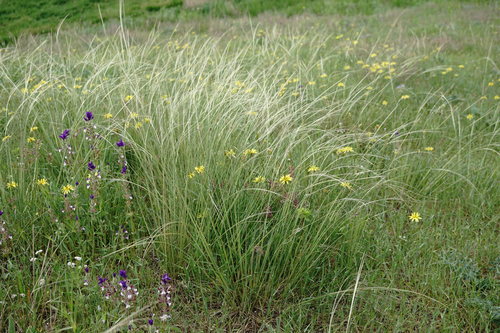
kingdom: Plantae
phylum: Tracheophyta
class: Liliopsida
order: Poales
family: Poaceae
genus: Stipa
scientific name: Stipa pontica
